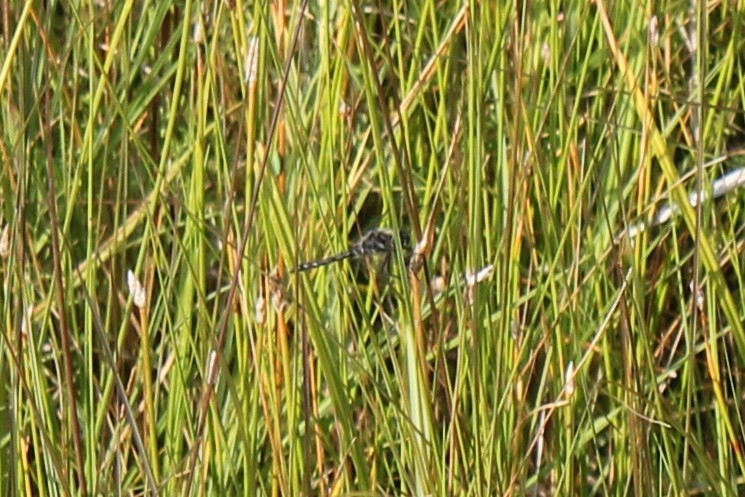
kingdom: Animalia
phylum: Arthropoda
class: Insecta
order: Odonata
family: Libellulidae
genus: Sympetrum
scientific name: Sympetrum danae
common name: Black darter
